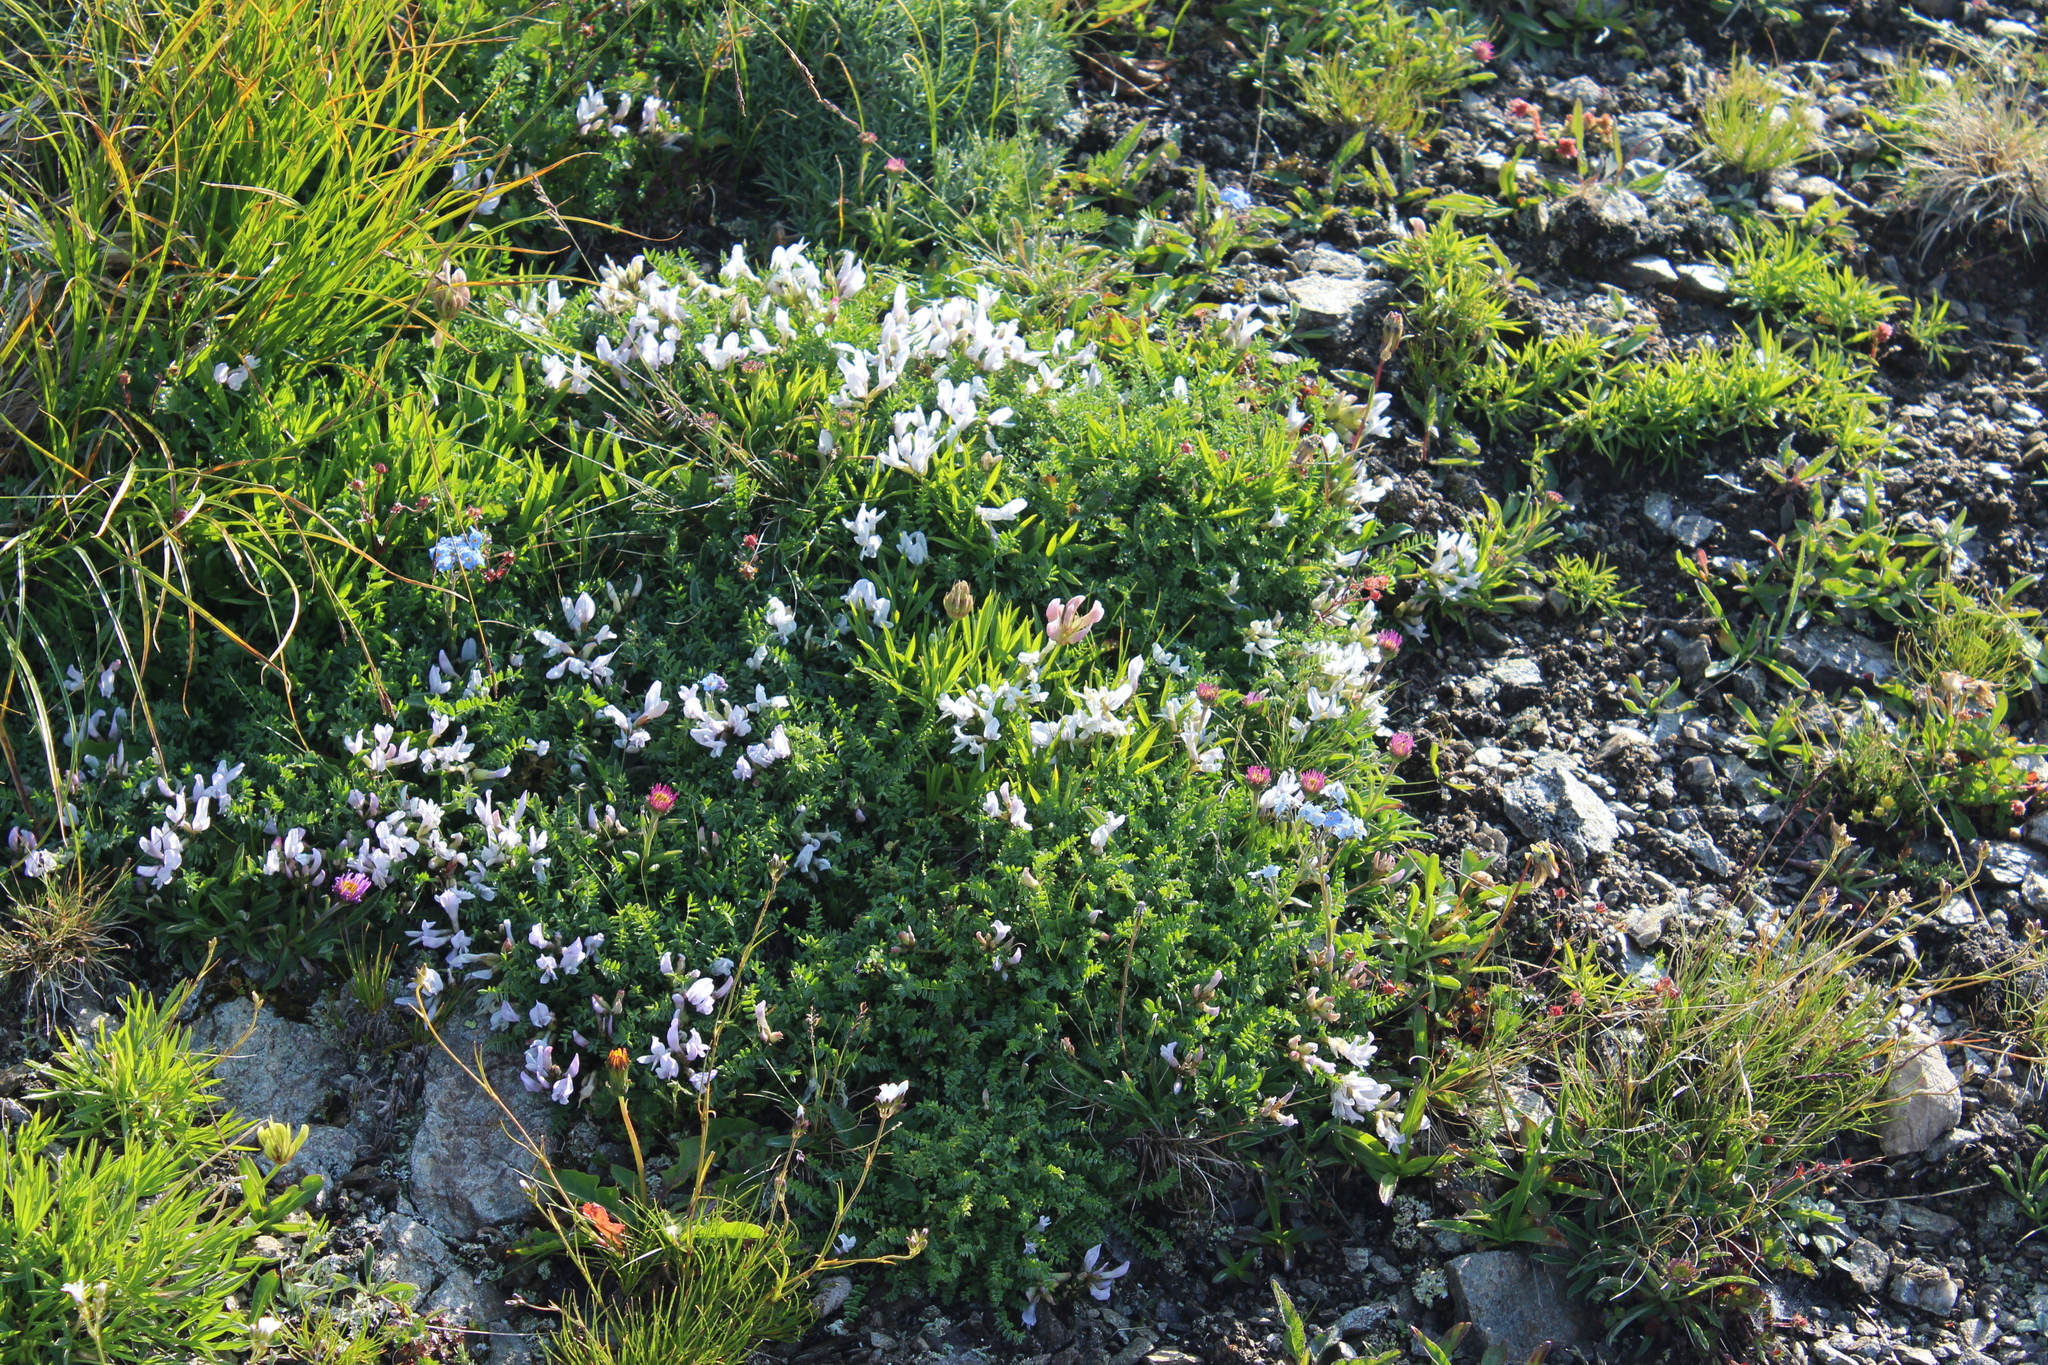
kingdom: Plantae
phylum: Tracheophyta
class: Magnoliopsida
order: Fabales
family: Fabaceae
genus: Astragalus
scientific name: Astragalus levieri
